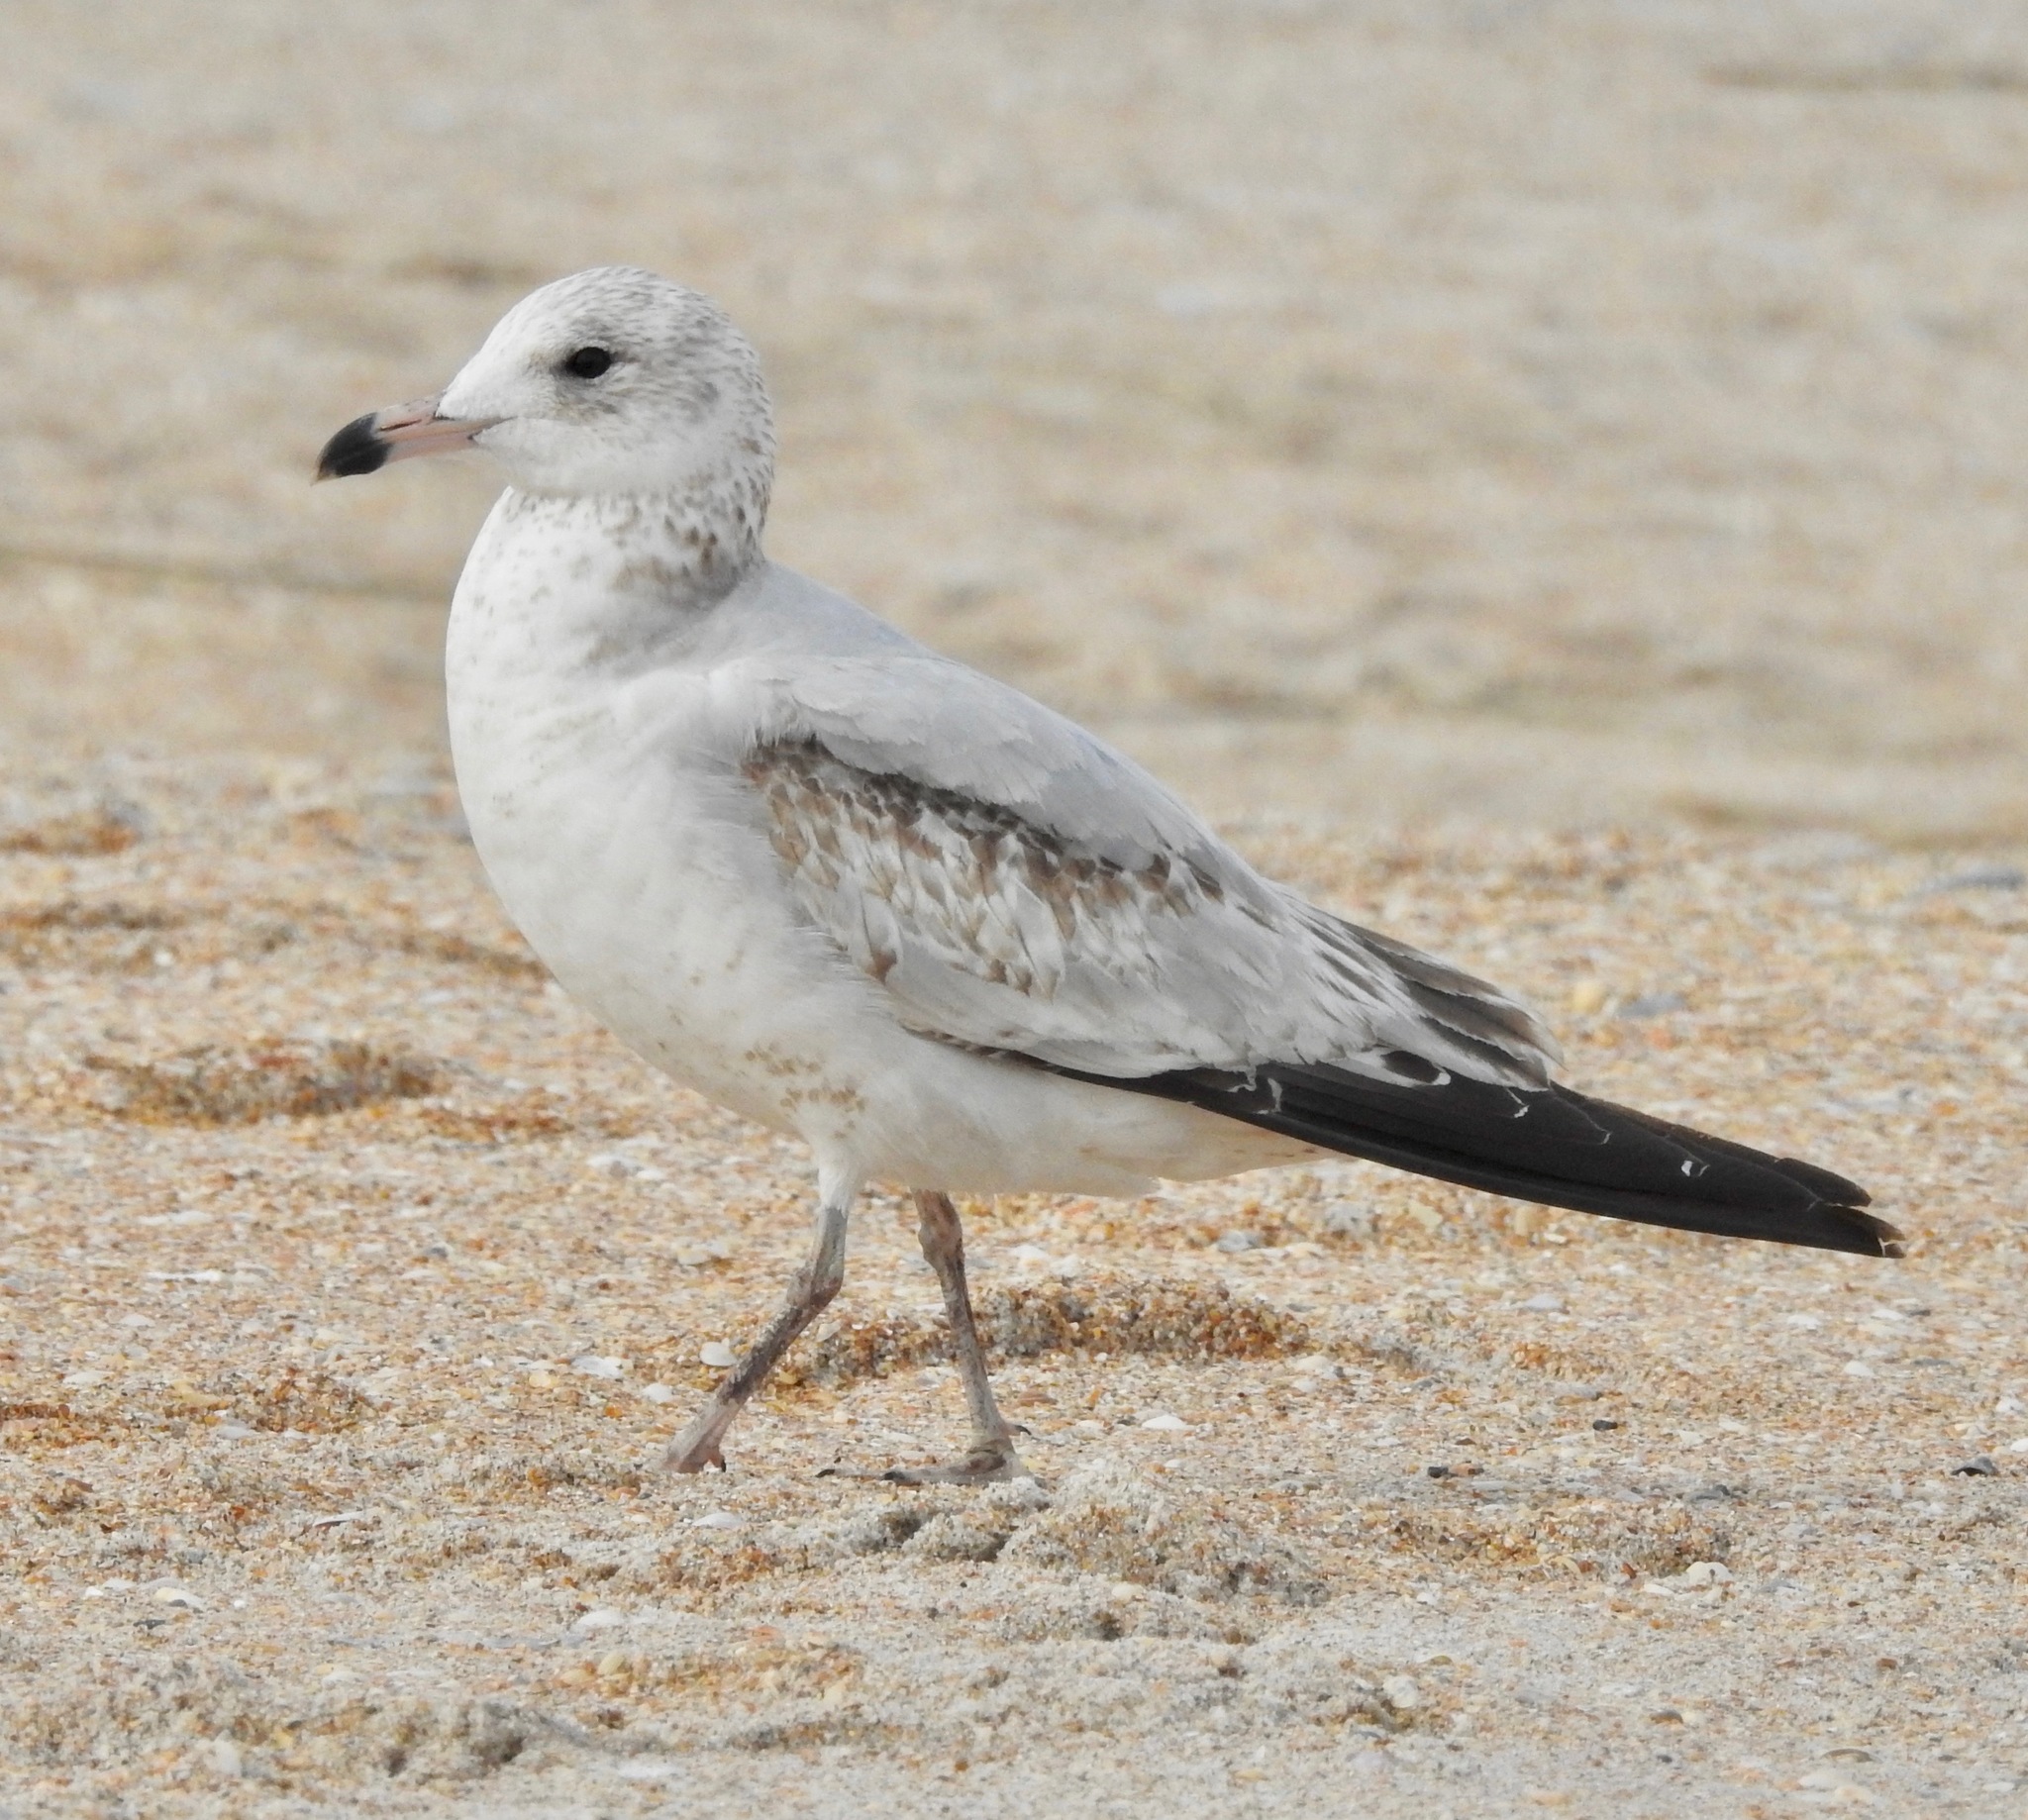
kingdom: Animalia
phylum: Chordata
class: Aves
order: Charadriiformes
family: Laridae
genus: Larus
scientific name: Larus delawarensis
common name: Ring-billed gull
